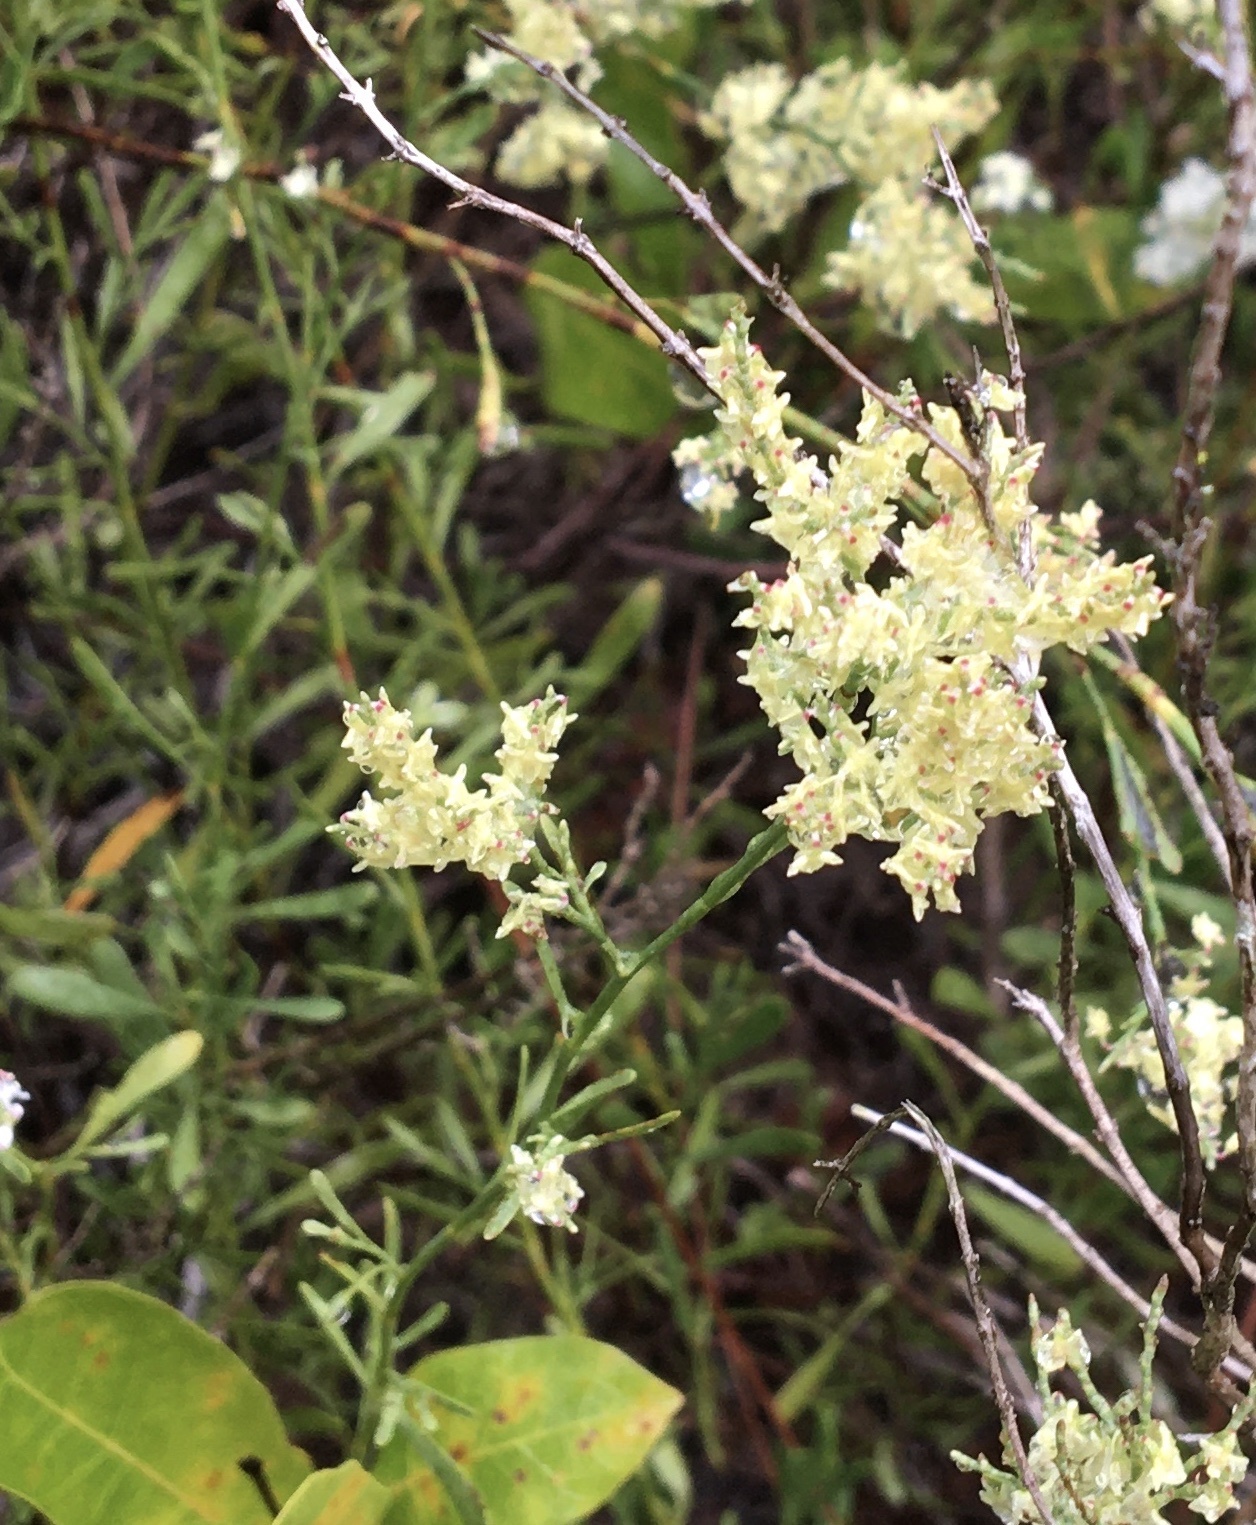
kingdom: Plantae
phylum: Tracheophyta
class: Magnoliopsida
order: Caryophyllales
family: Polygonaceae
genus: Polygonella
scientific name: Polygonella polygama
